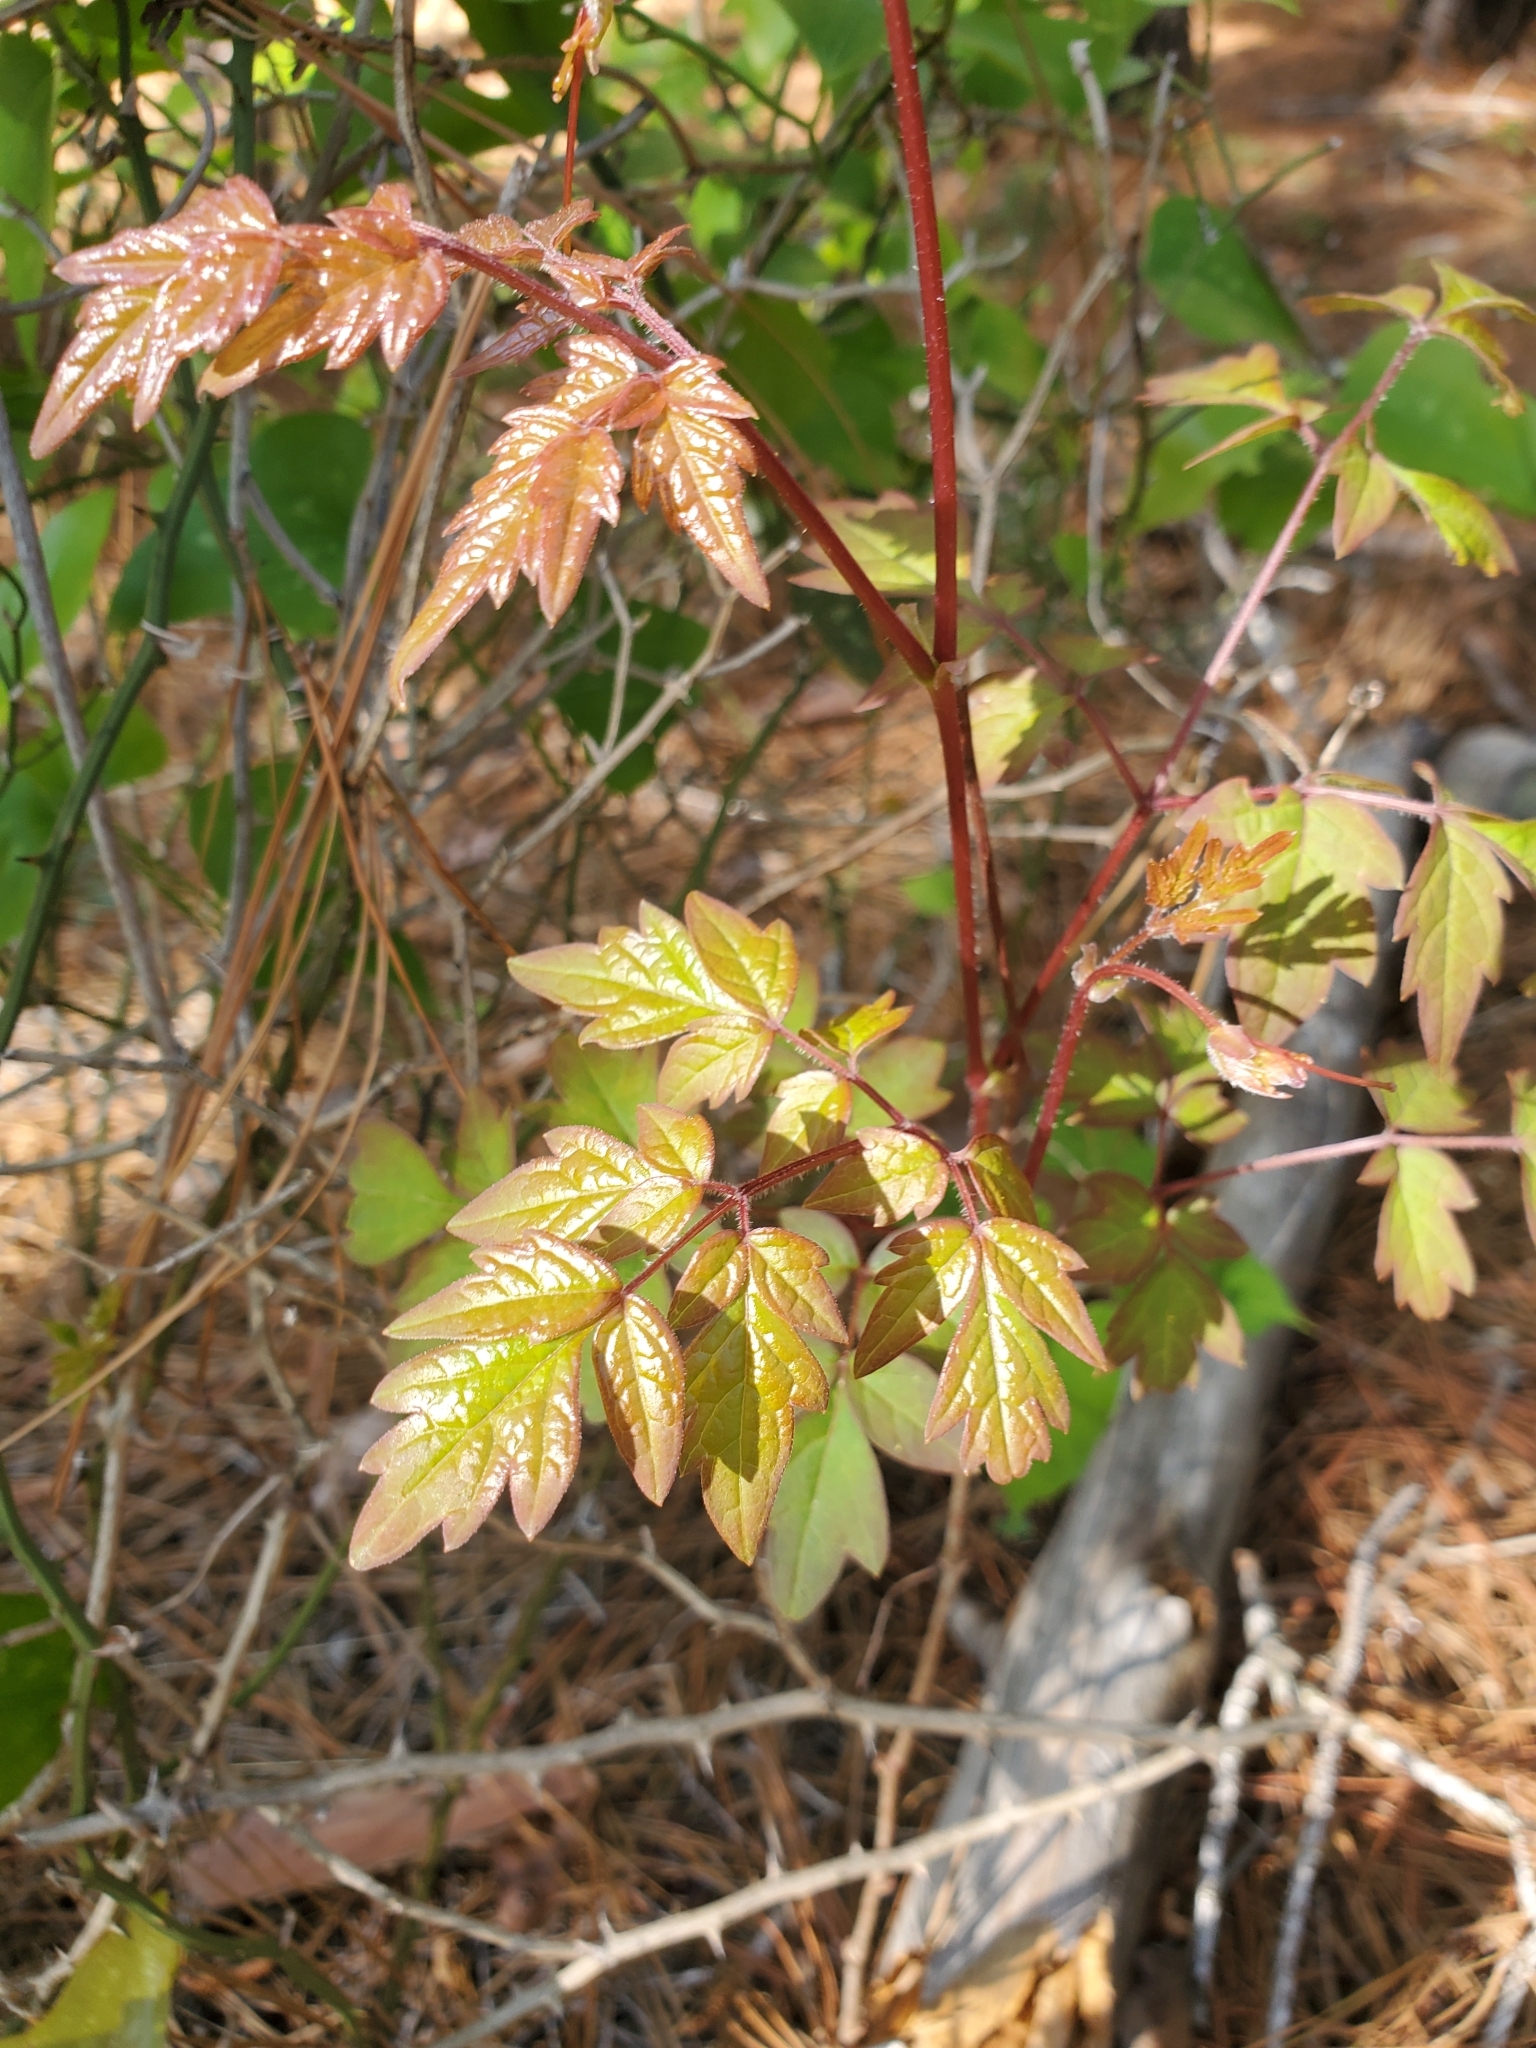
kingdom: Plantae
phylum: Tracheophyta
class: Magnoliopsida
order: Vitales
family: Vitaceae
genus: Nekemias
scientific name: Nekemias arborea
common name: Peppervine
